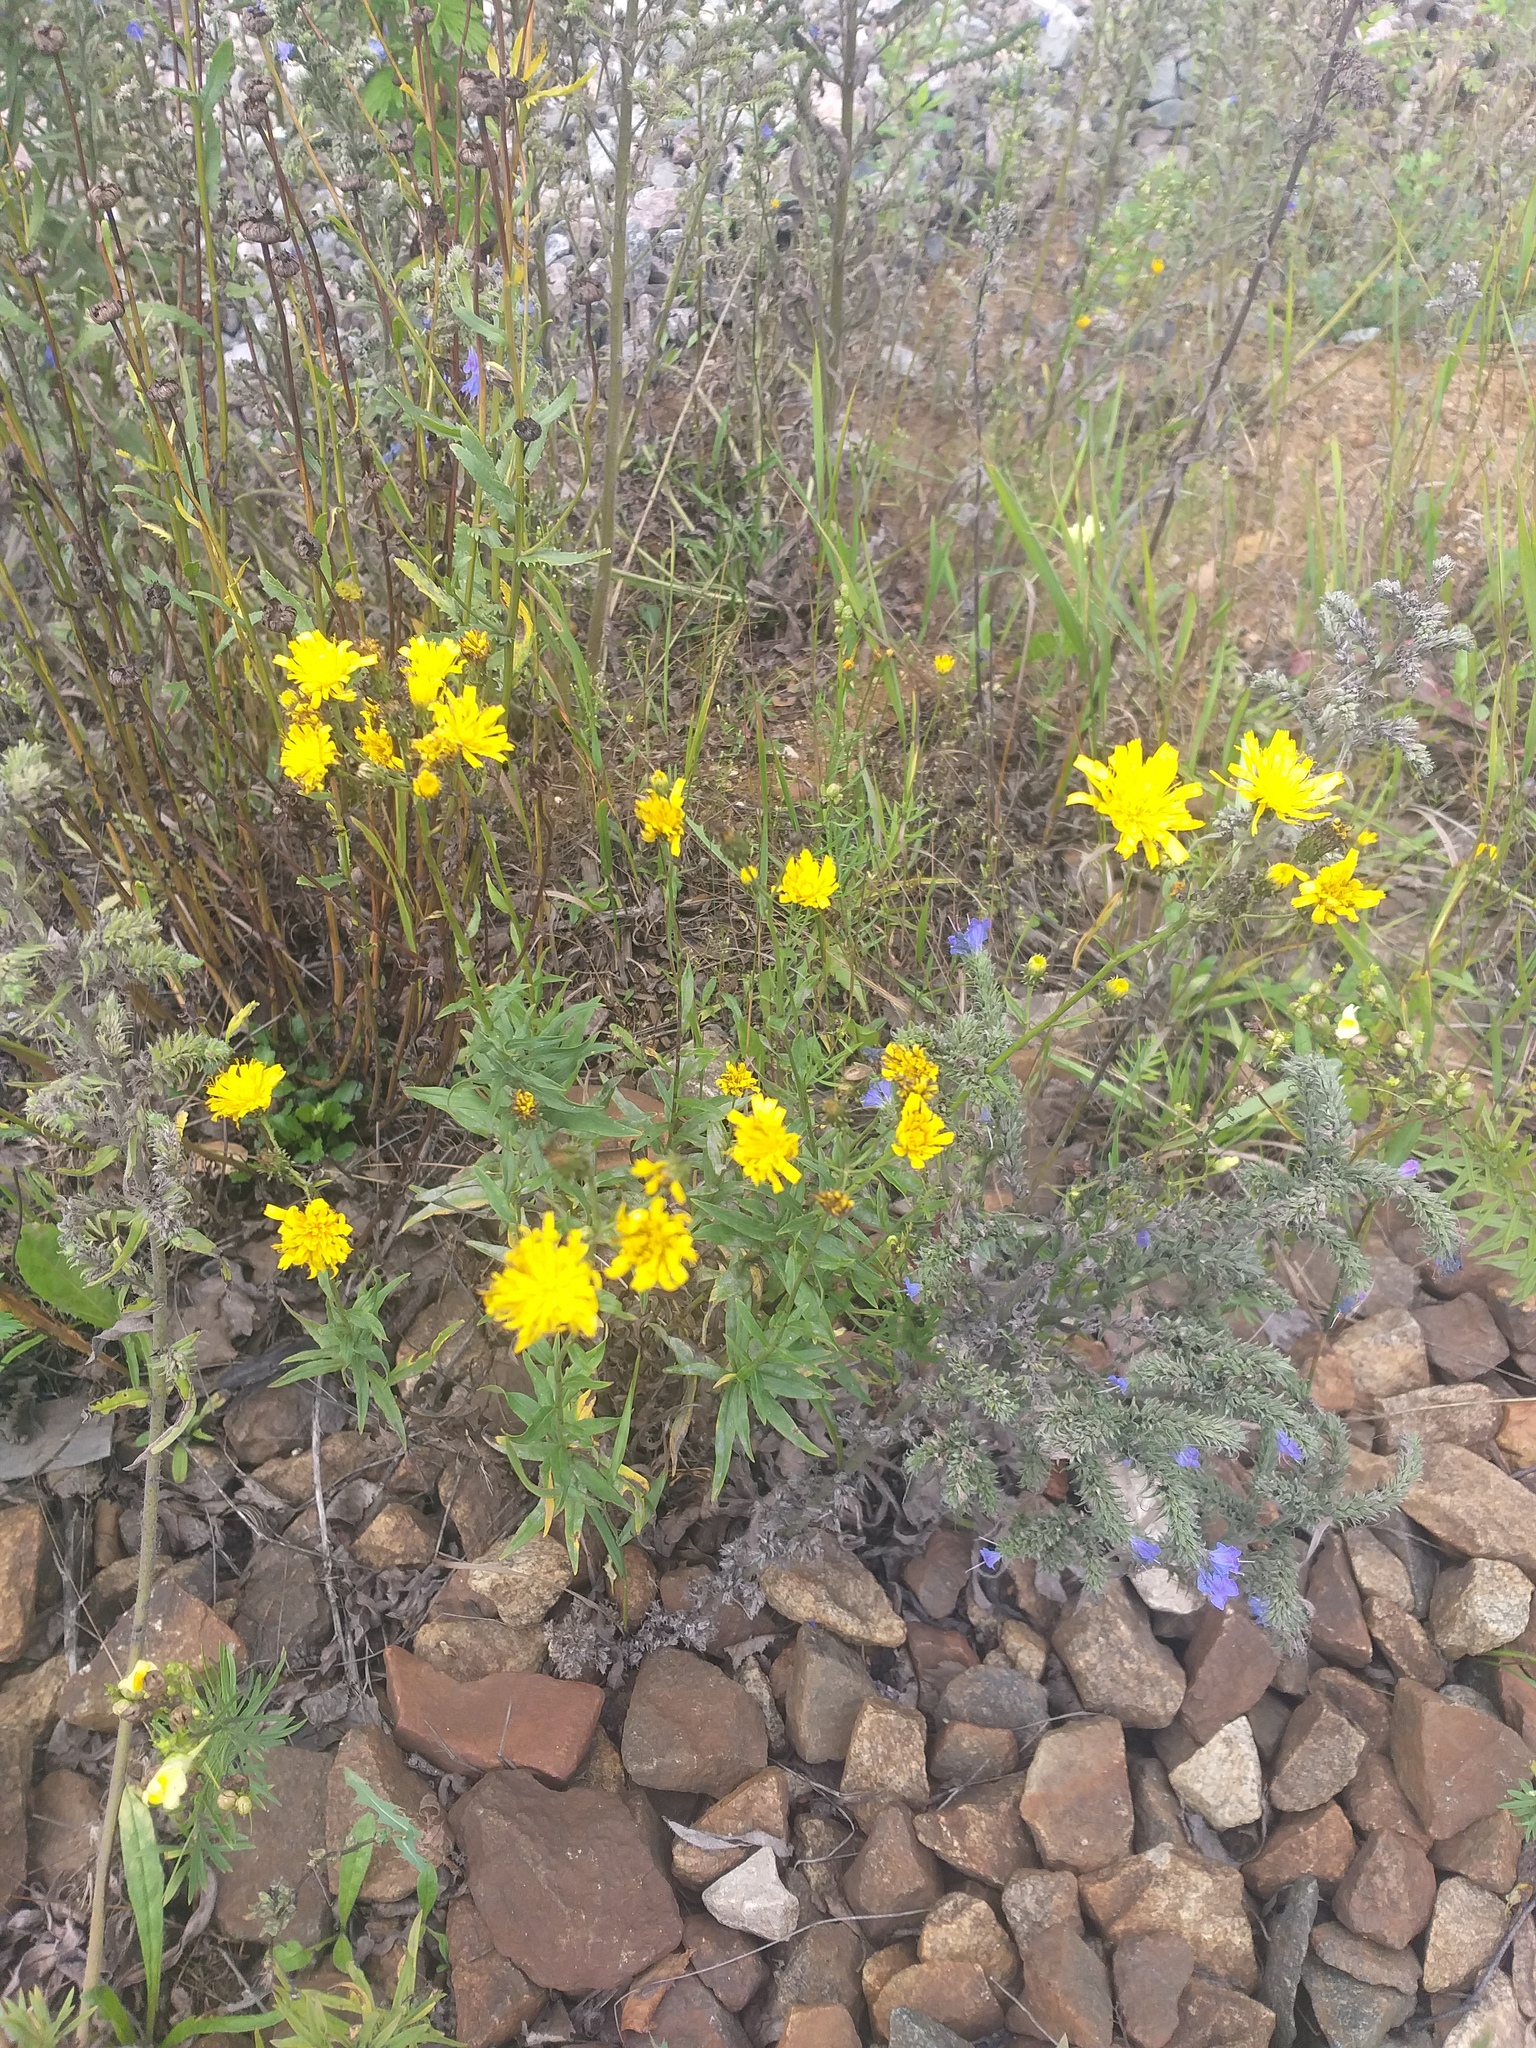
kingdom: Plantae
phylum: Tracheophyta
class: Magnoliopsida
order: Asterales
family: Asteraceae
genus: Hieracium
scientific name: Hieracium umbellatum
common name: Northern hawkweed
